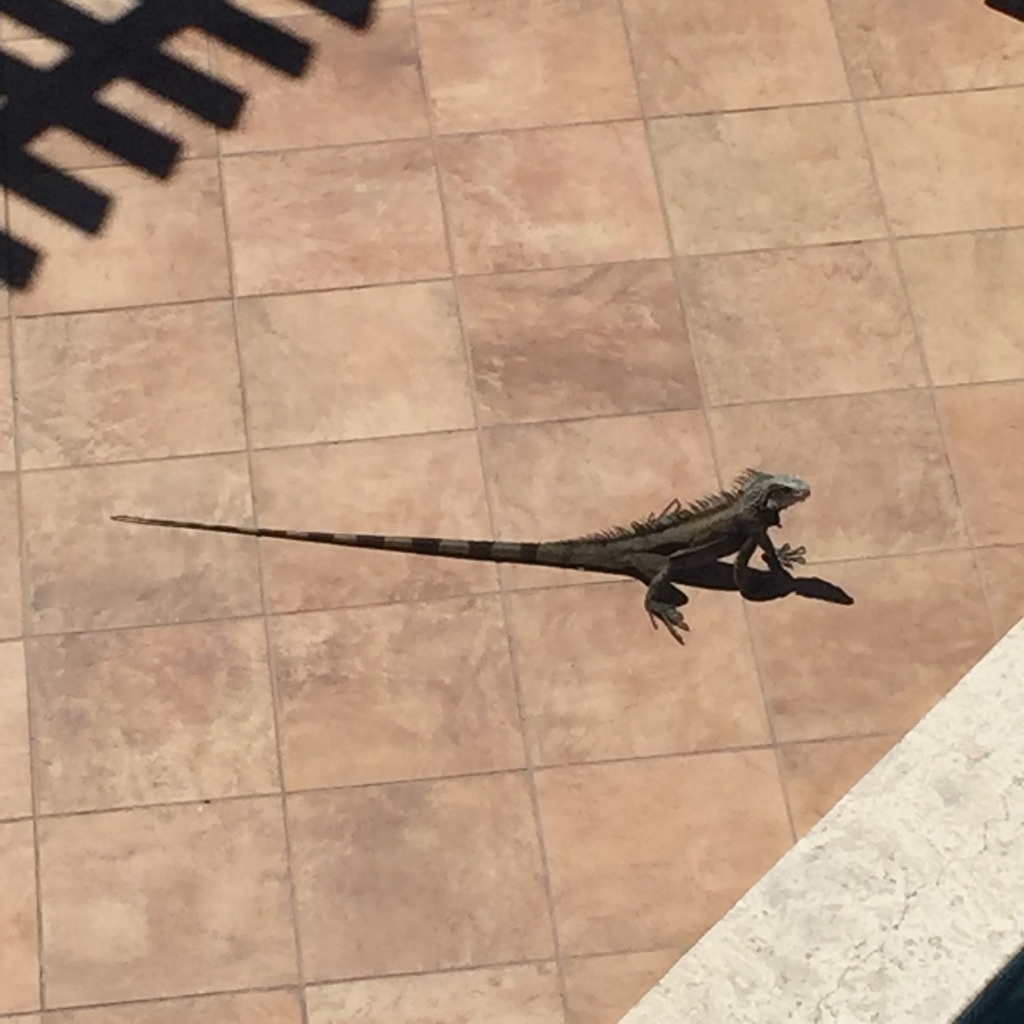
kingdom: Animalia
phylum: Chordata
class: Squamata
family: Iguanidae
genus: Iguana
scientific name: Iguana iguana
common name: Green iguana
